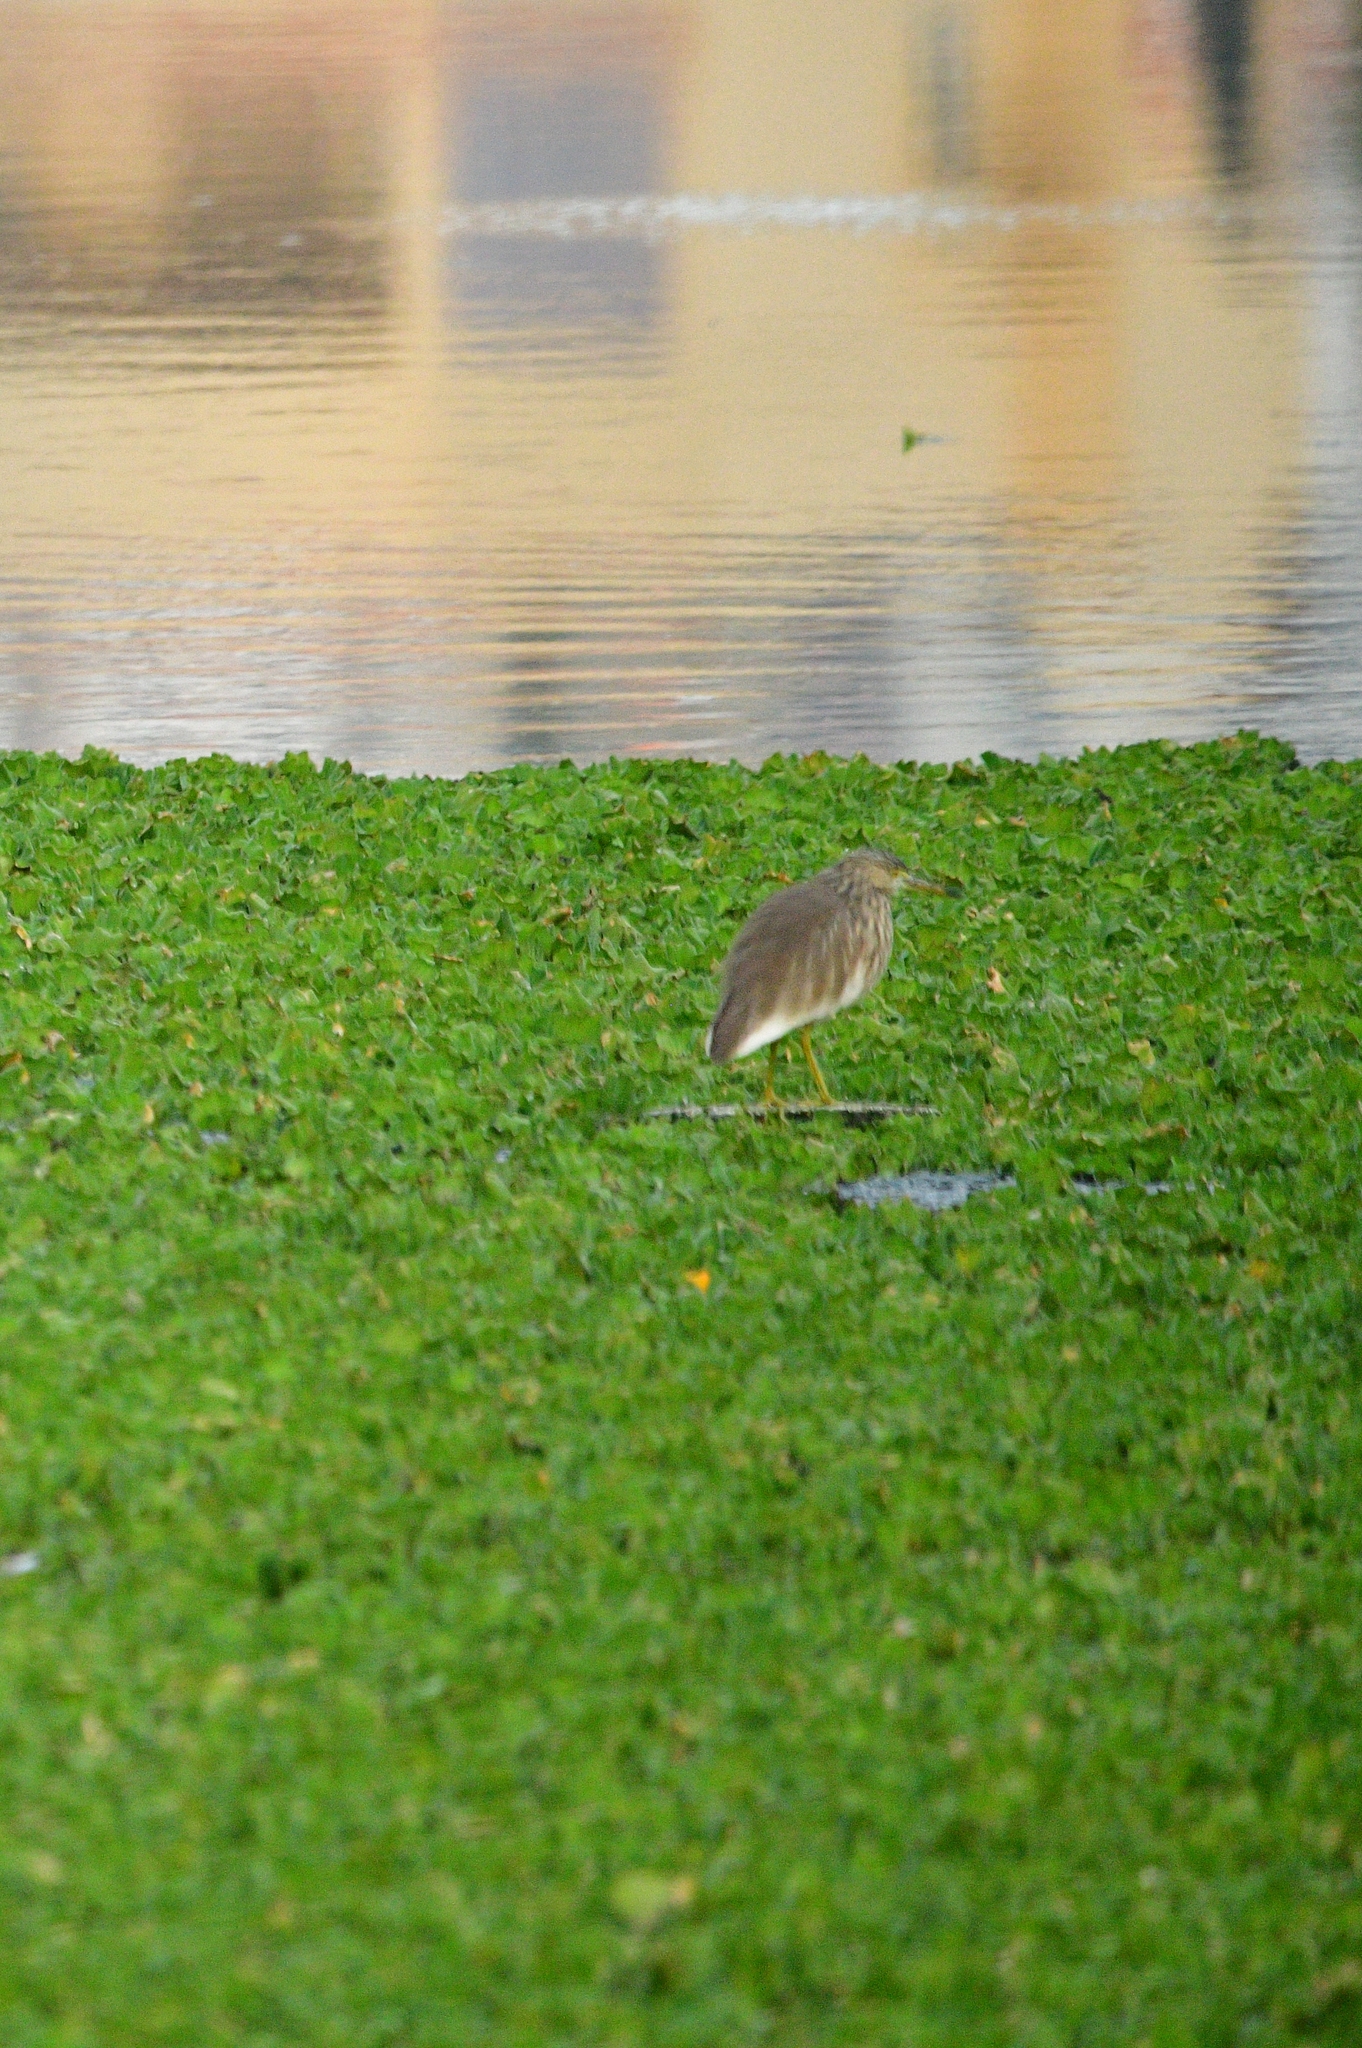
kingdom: Animalia
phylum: Chordata
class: Aves
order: Pelecaniformes
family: Ardeidae
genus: Ardeola
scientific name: Ardeola grayii
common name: Indian pond heron
